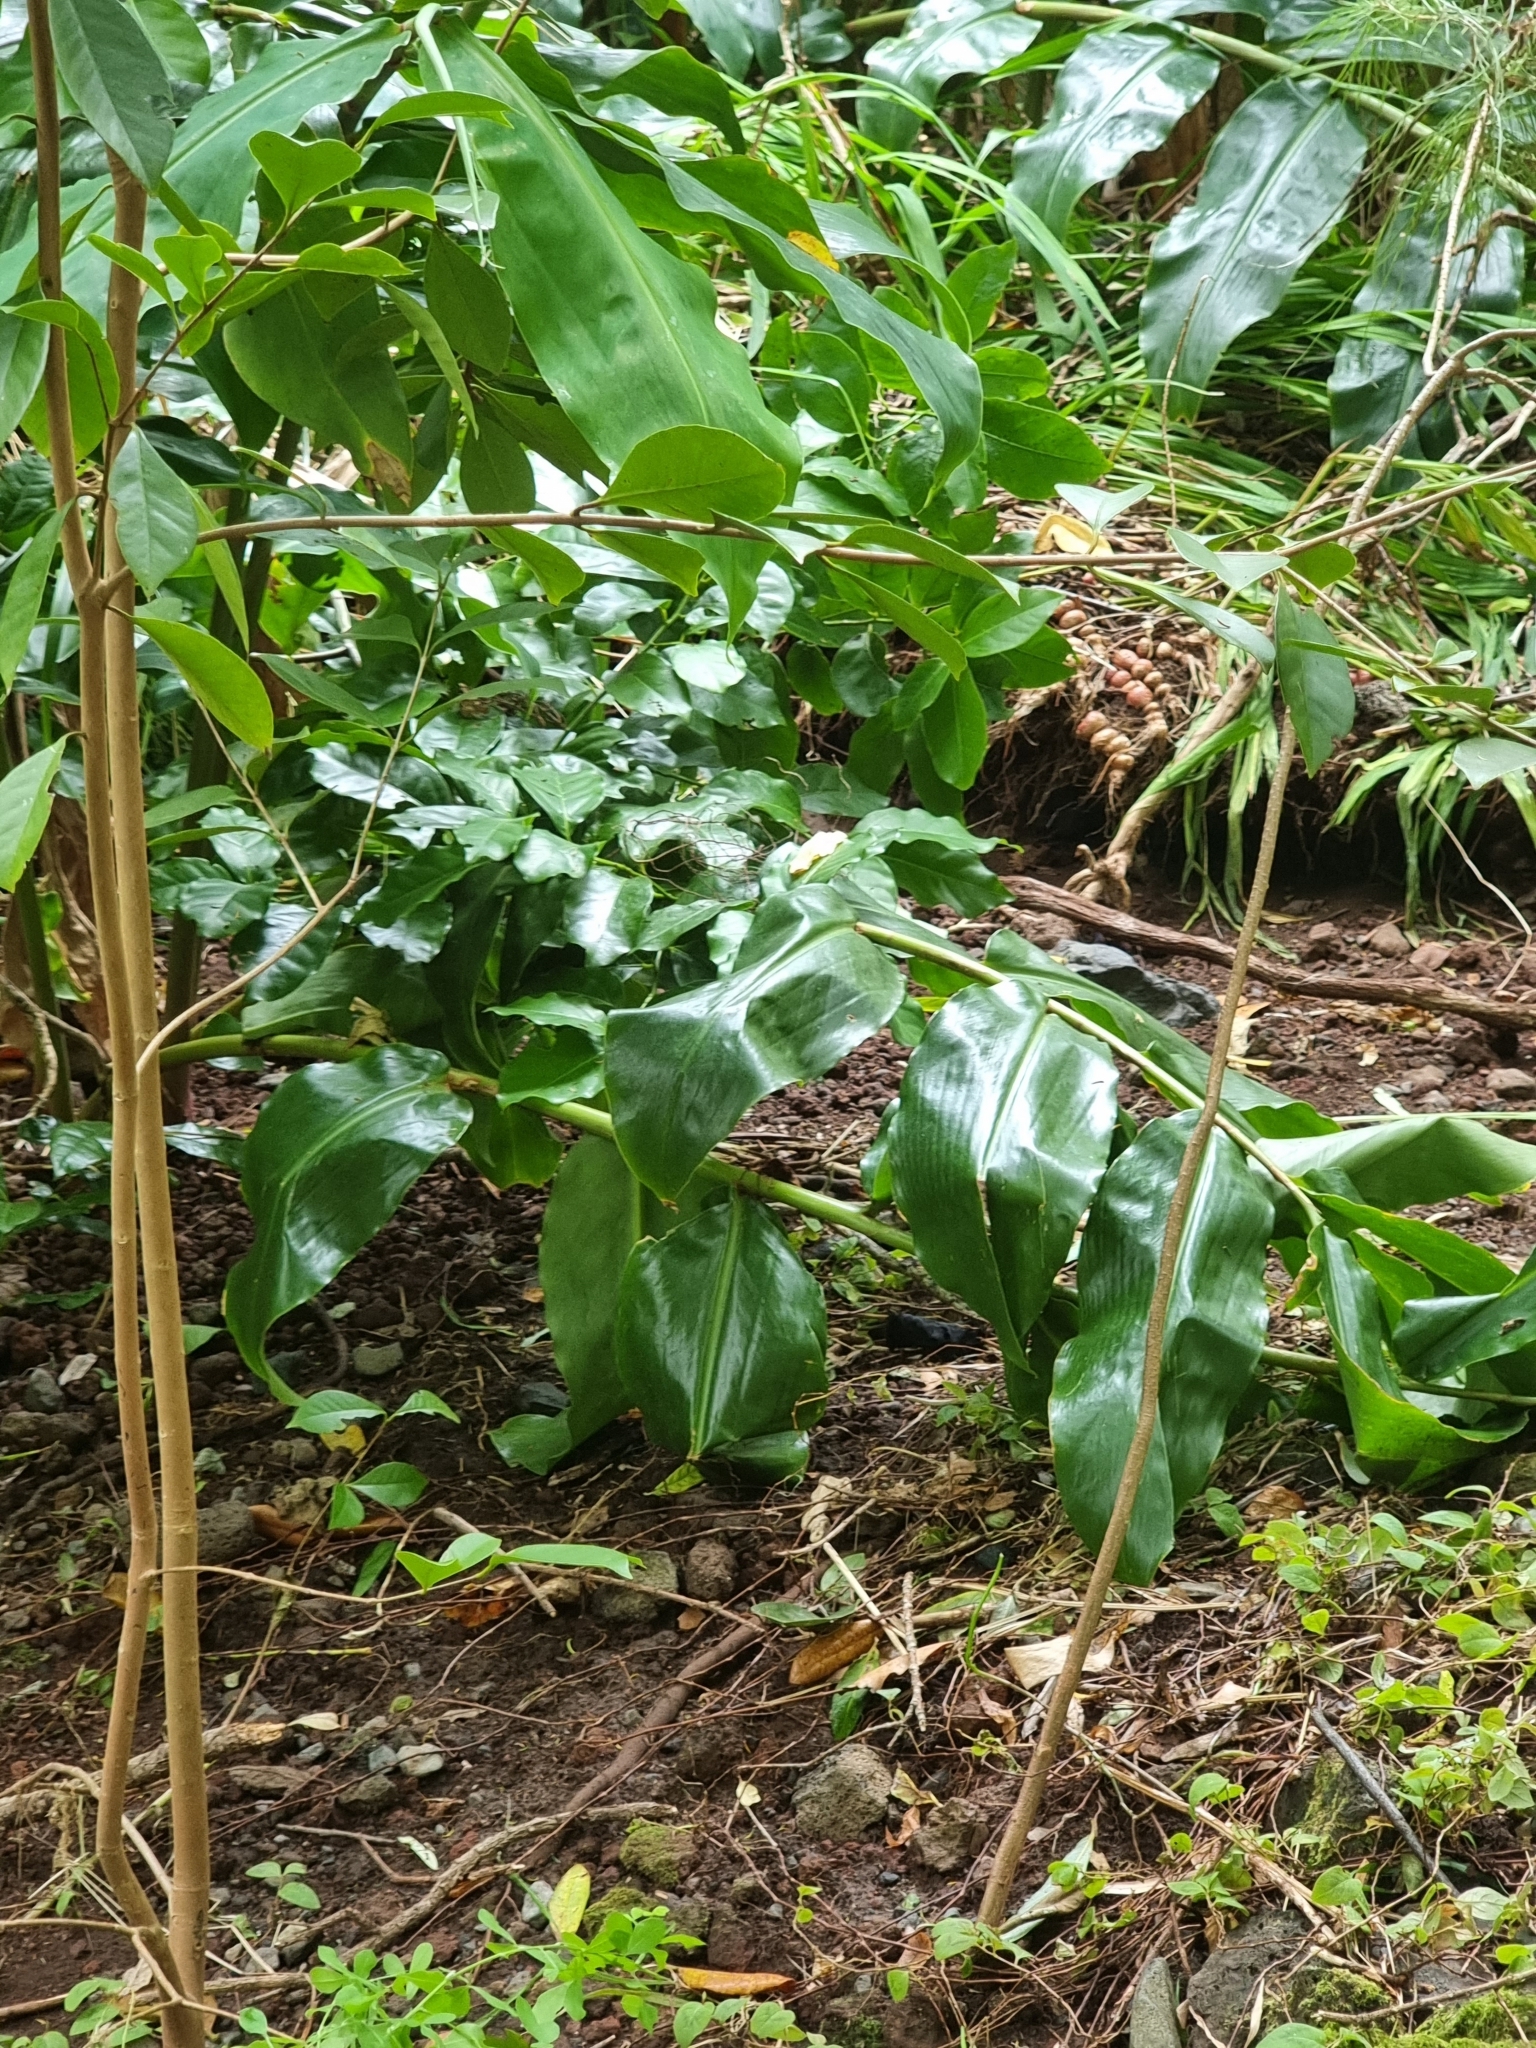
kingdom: Plantae
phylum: Tracheophyta
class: Liliopsida
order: Zingiberales
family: Zingiberaceae
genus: Hedychium
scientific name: Hedychium gardnerianum
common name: Himalayan ginger
